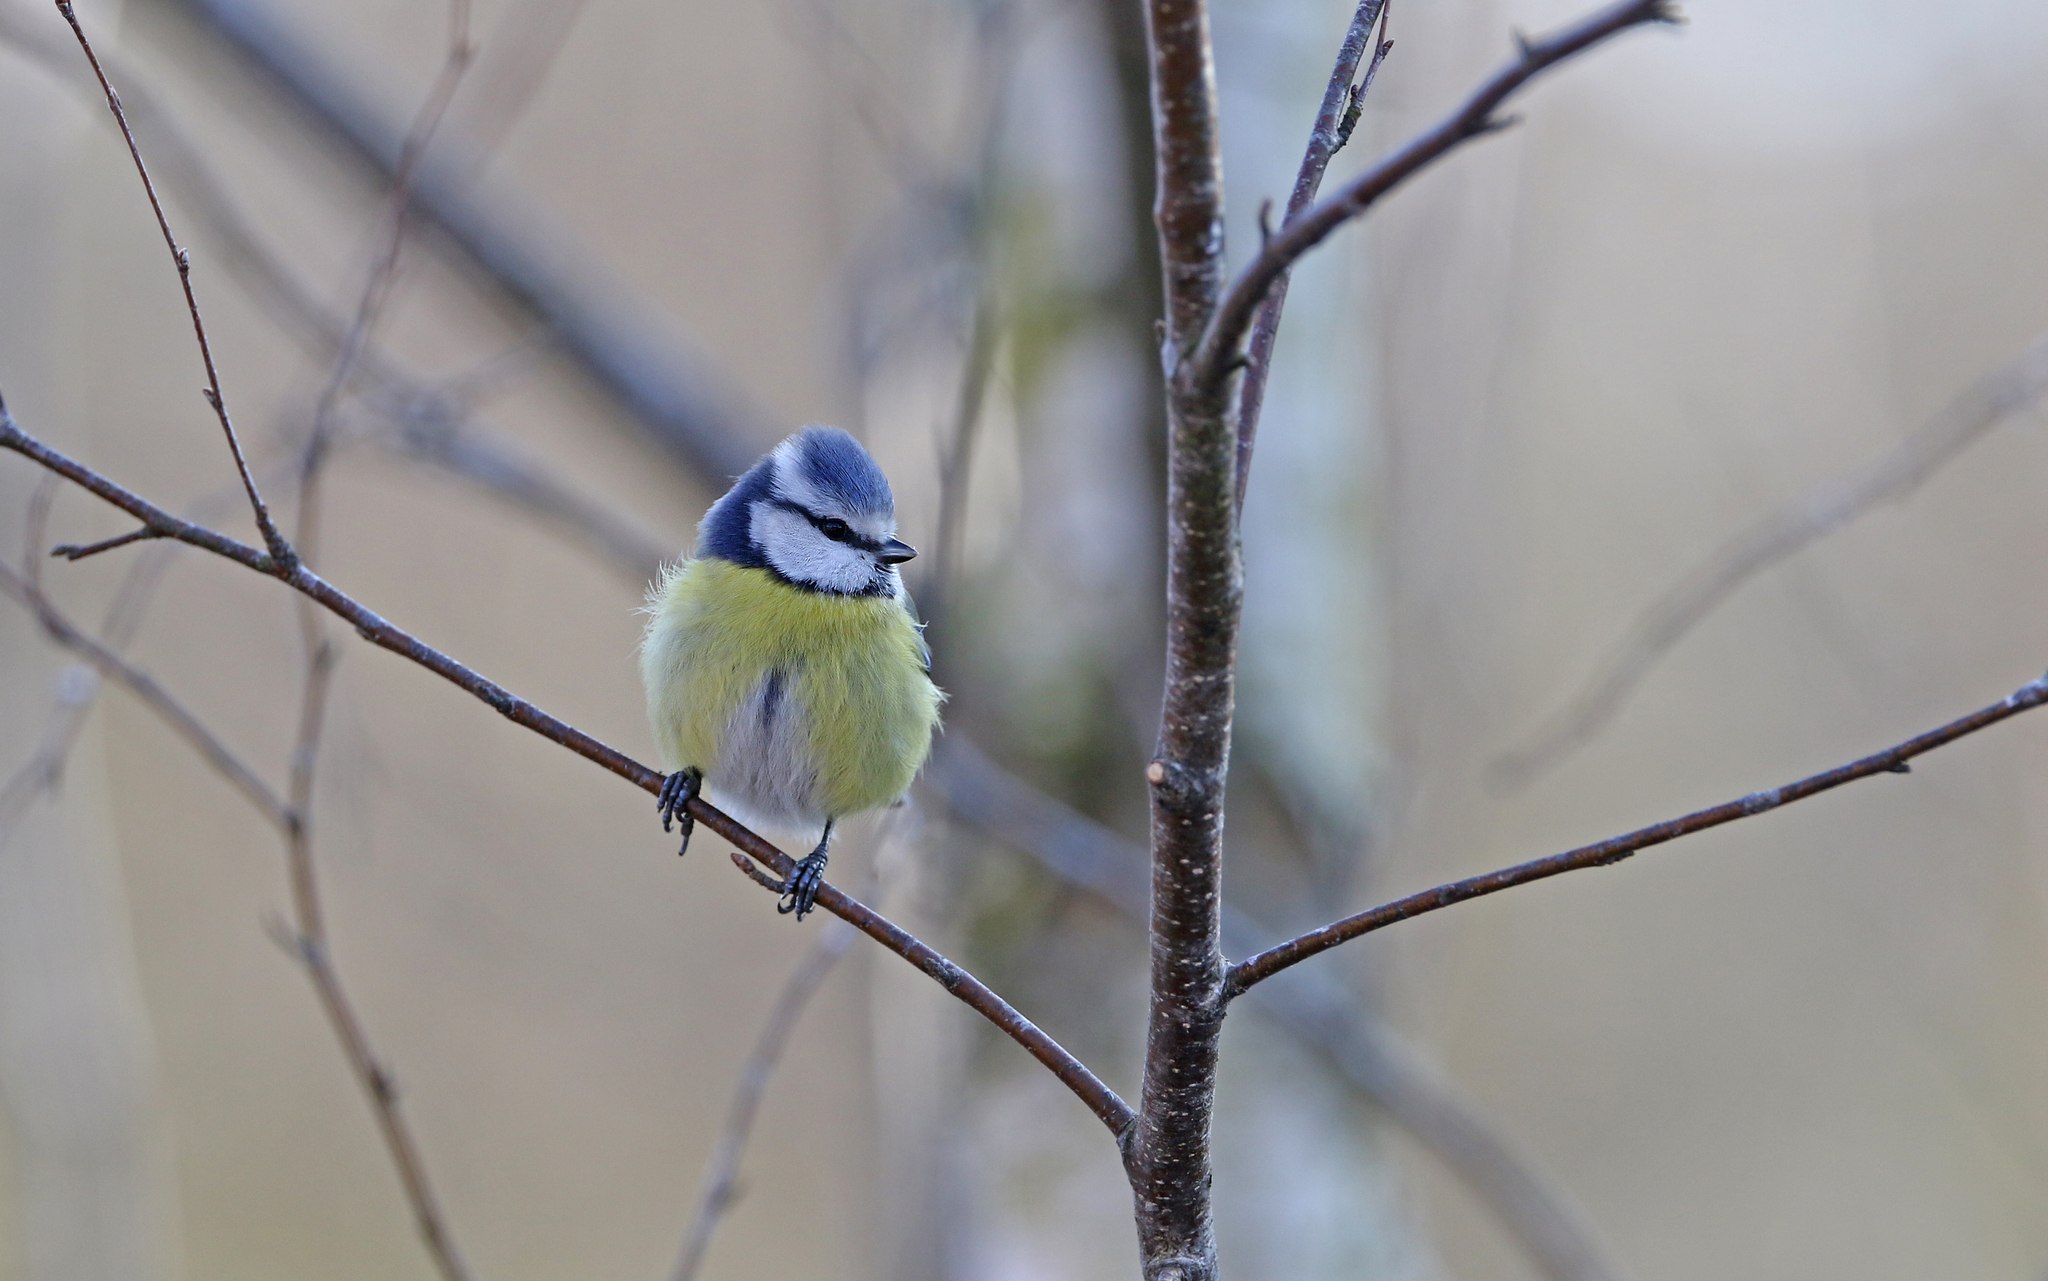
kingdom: Animalia
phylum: Chordata
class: Aves
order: Passeriformes
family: Paridae
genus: Cyanistes
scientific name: Cyanistes caeruleus
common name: Eurasian blue tit
